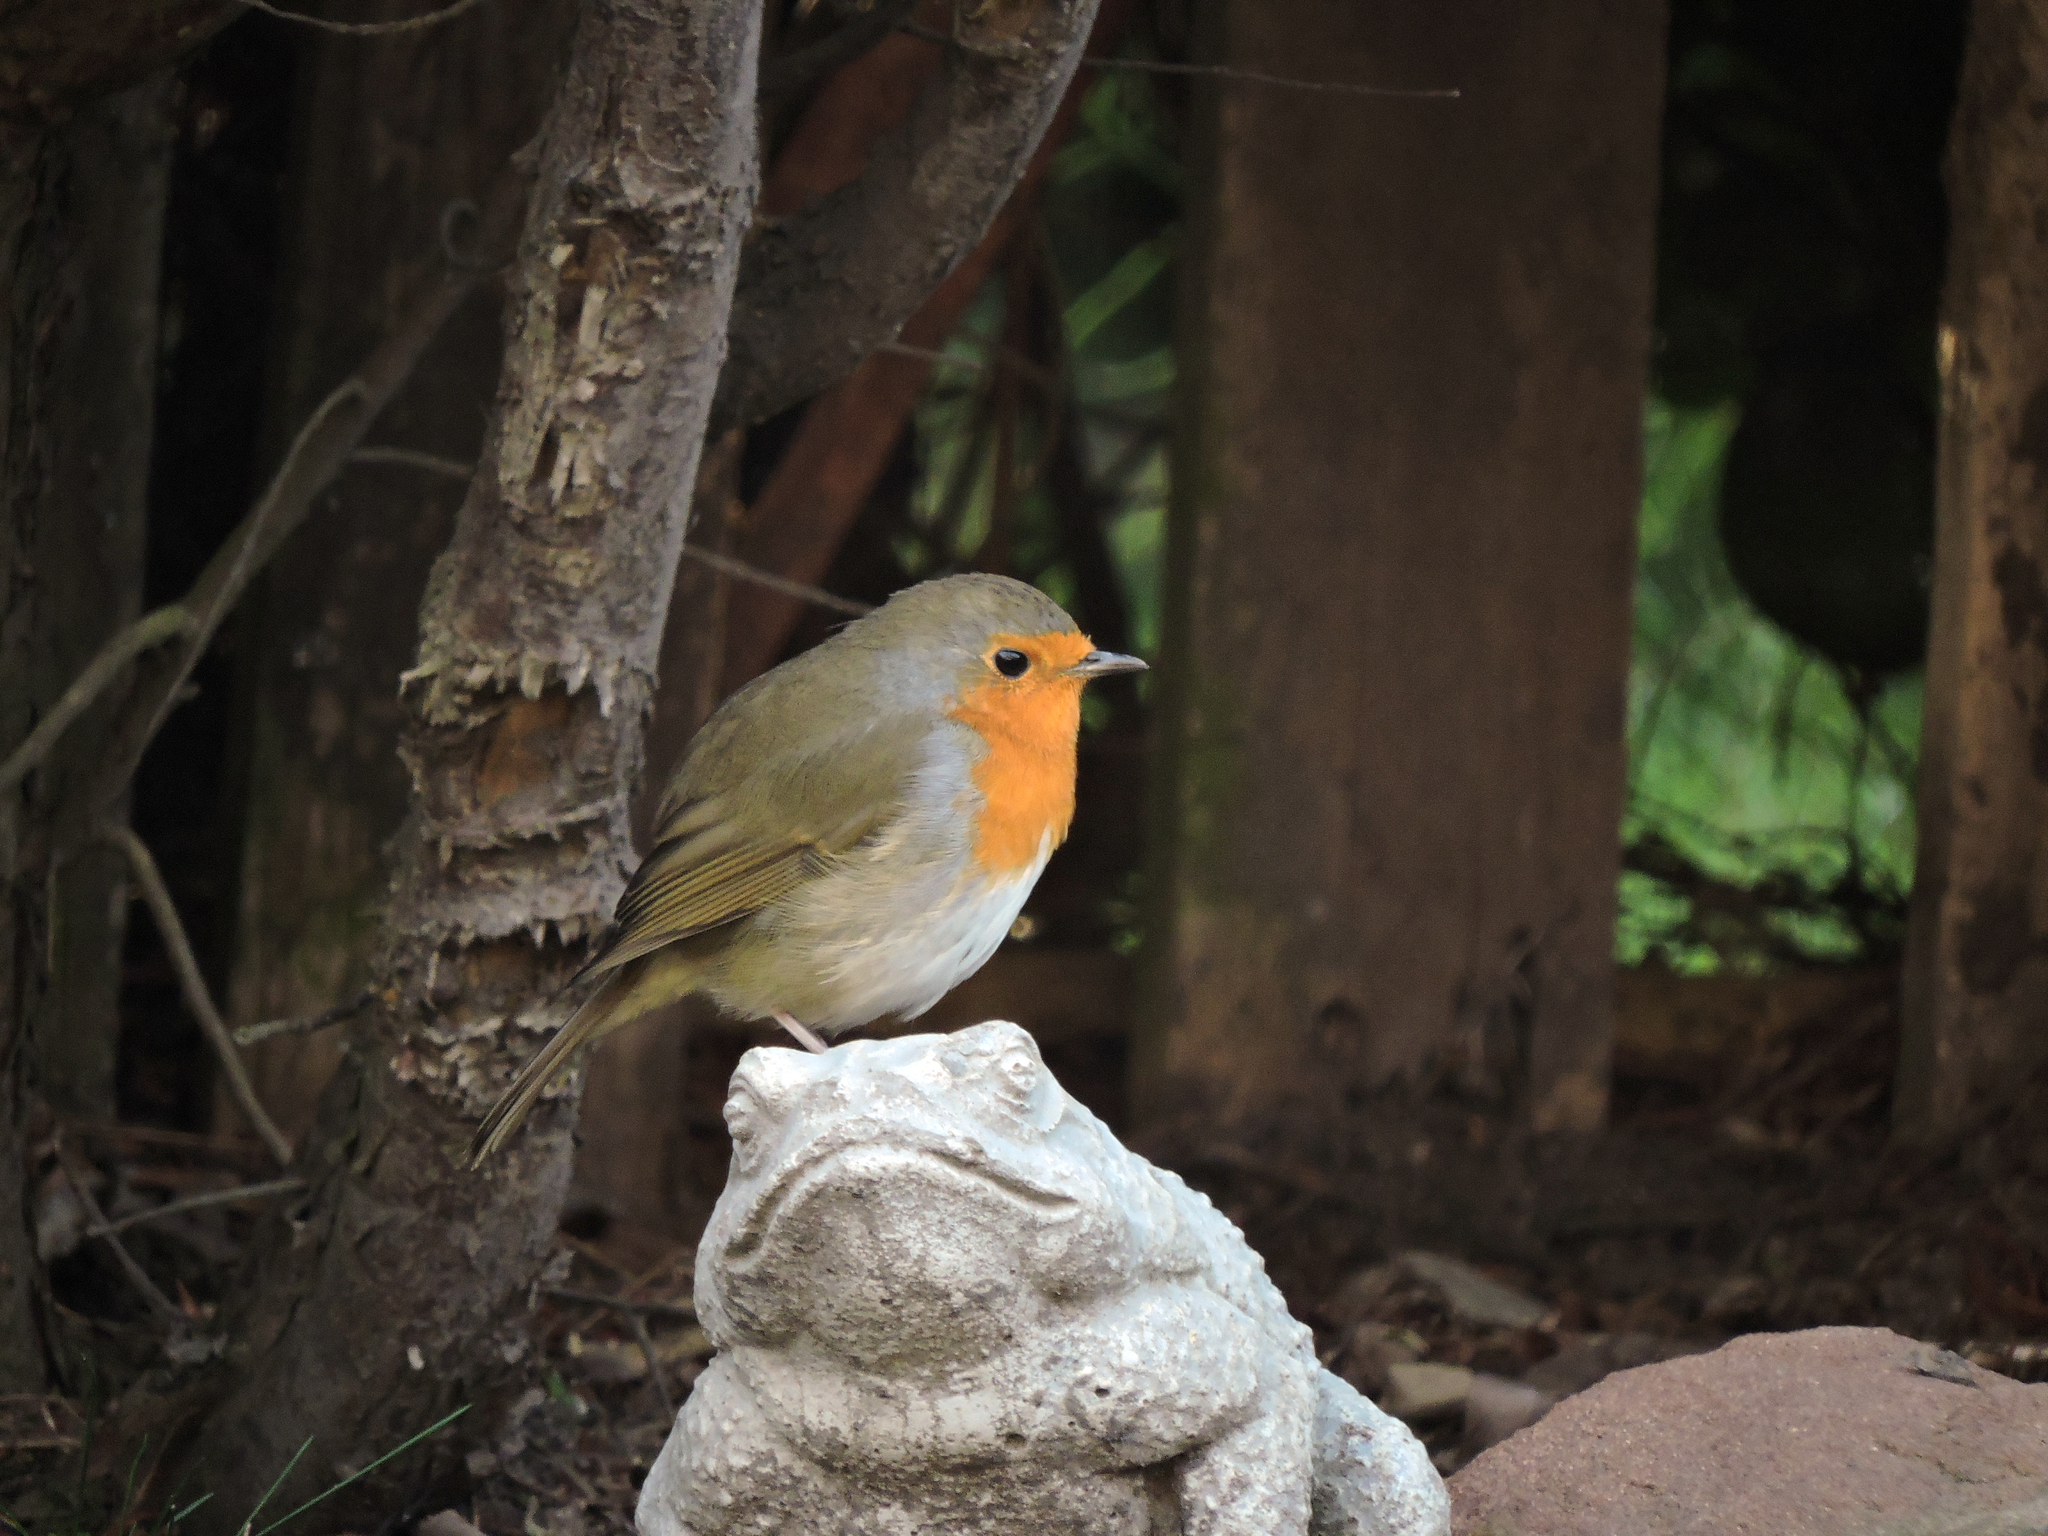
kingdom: Animalia
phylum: Chordata
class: Aves
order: Passeriformes
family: Muscicapidae
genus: Erithacus
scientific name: Erithacus rubecula
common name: European robin
